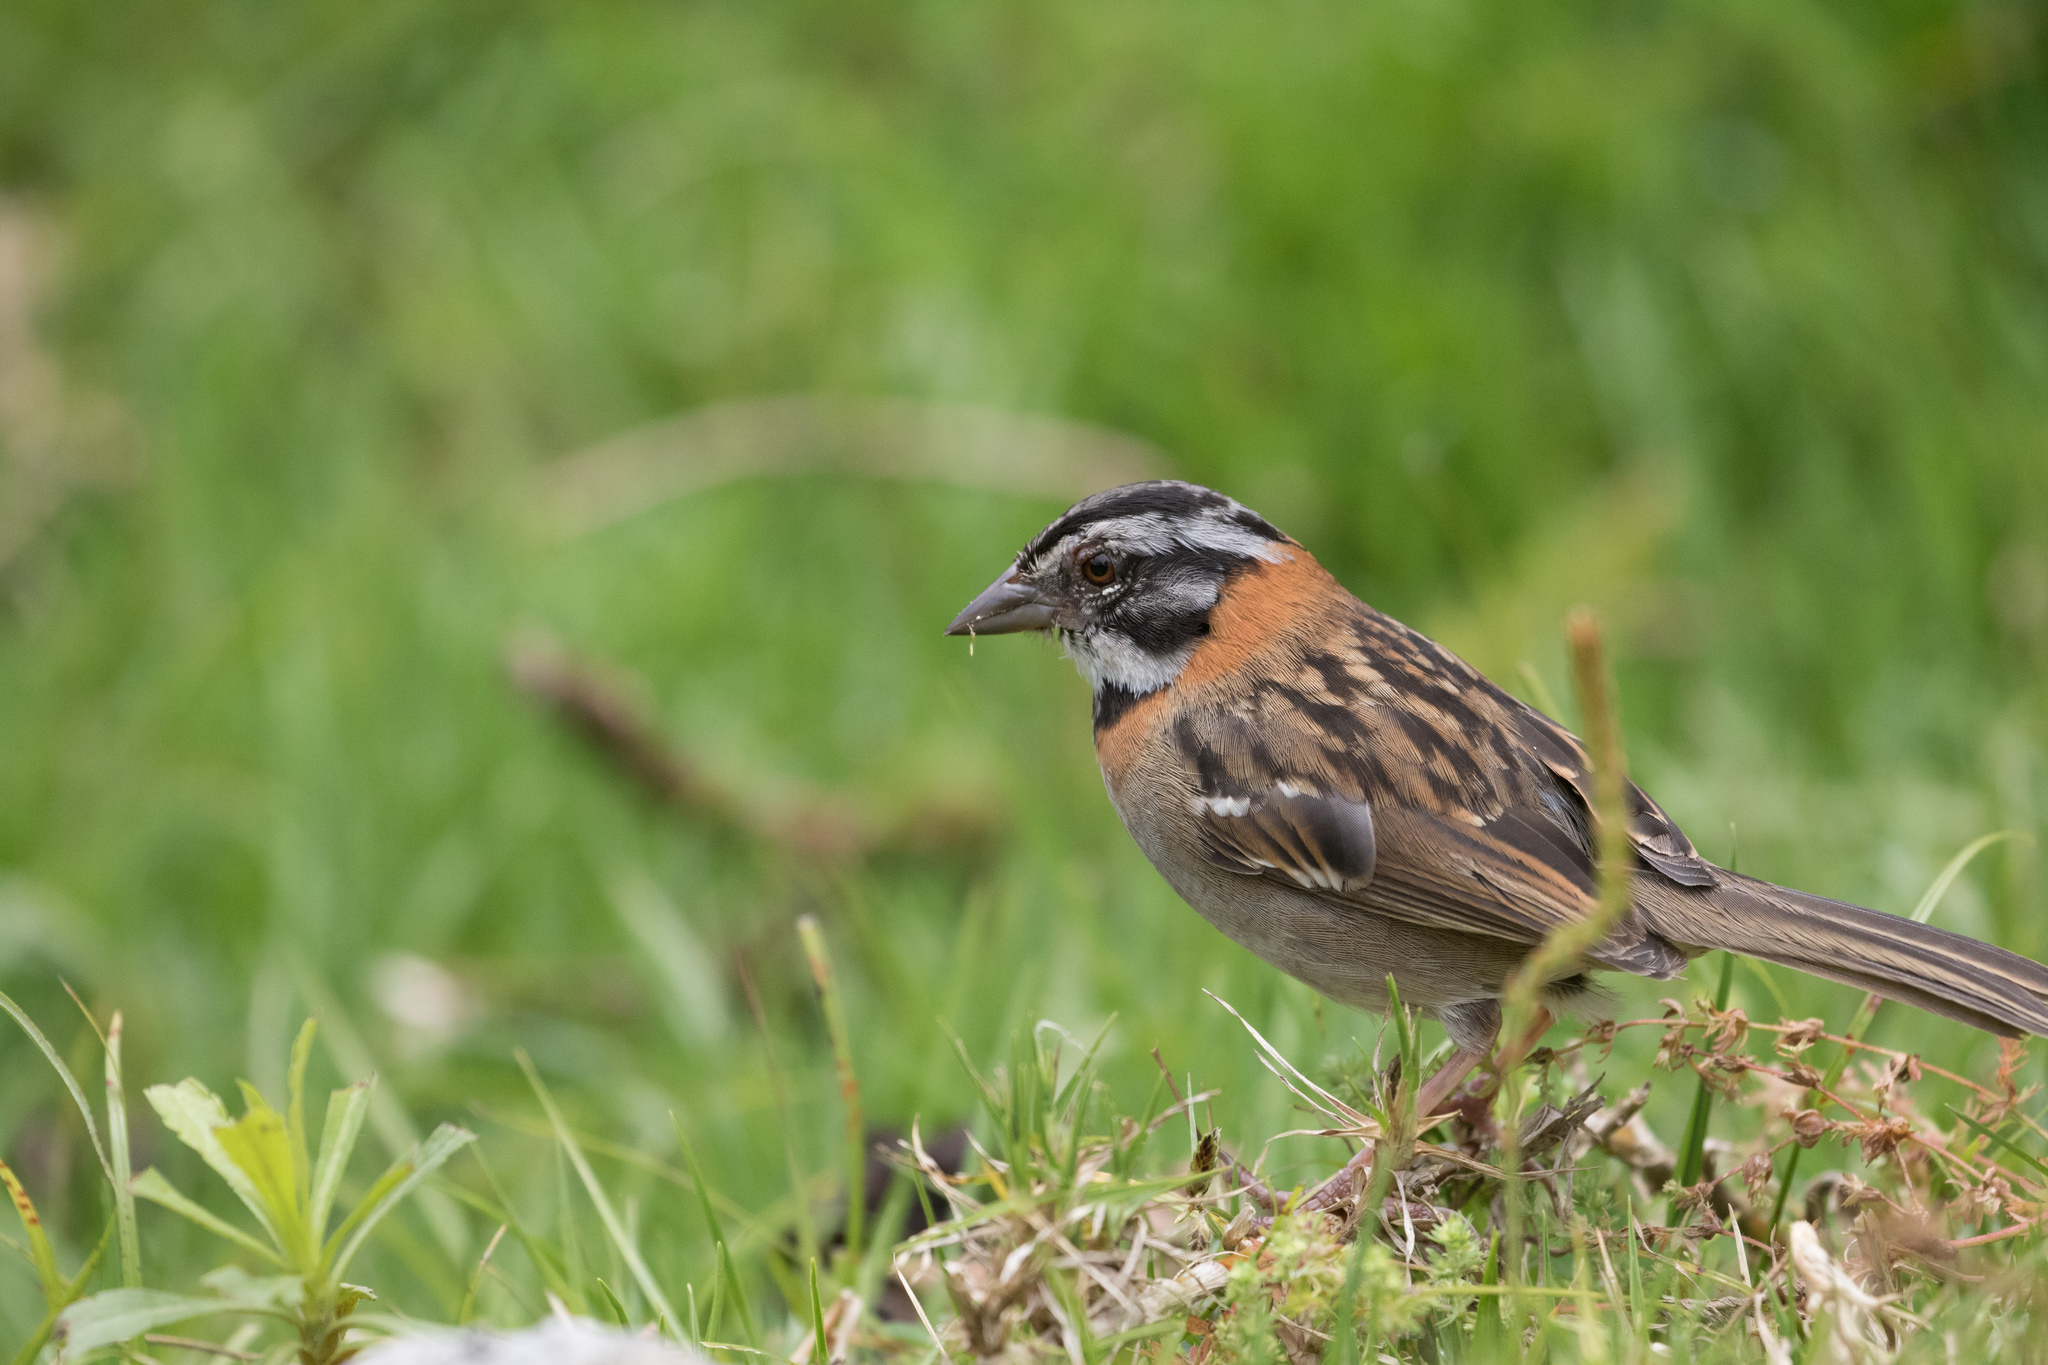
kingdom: Animalia
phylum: Chordata
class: Aves
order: Passeriformes
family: Passerellidae
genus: Zonotrichia
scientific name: Zonotrichia capensis
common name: Rufous-collared sparrow
